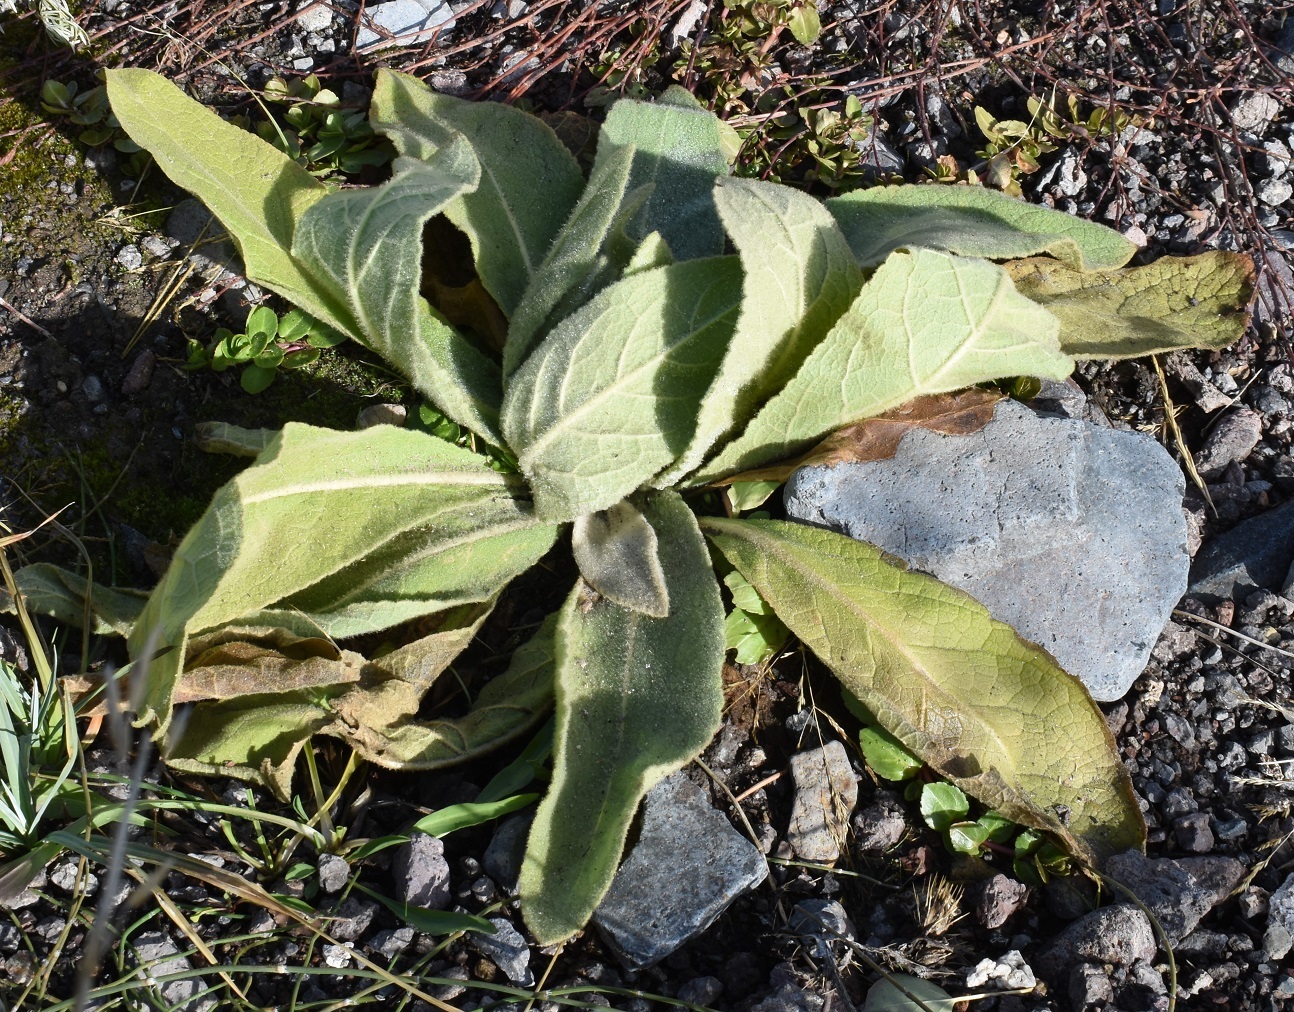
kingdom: Plantae
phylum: Tracheophyta
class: Magnoliopsida
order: Lamiales
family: Scrophulariaceae
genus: Verbascum
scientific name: Verbascum thapsus
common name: Common mullein
